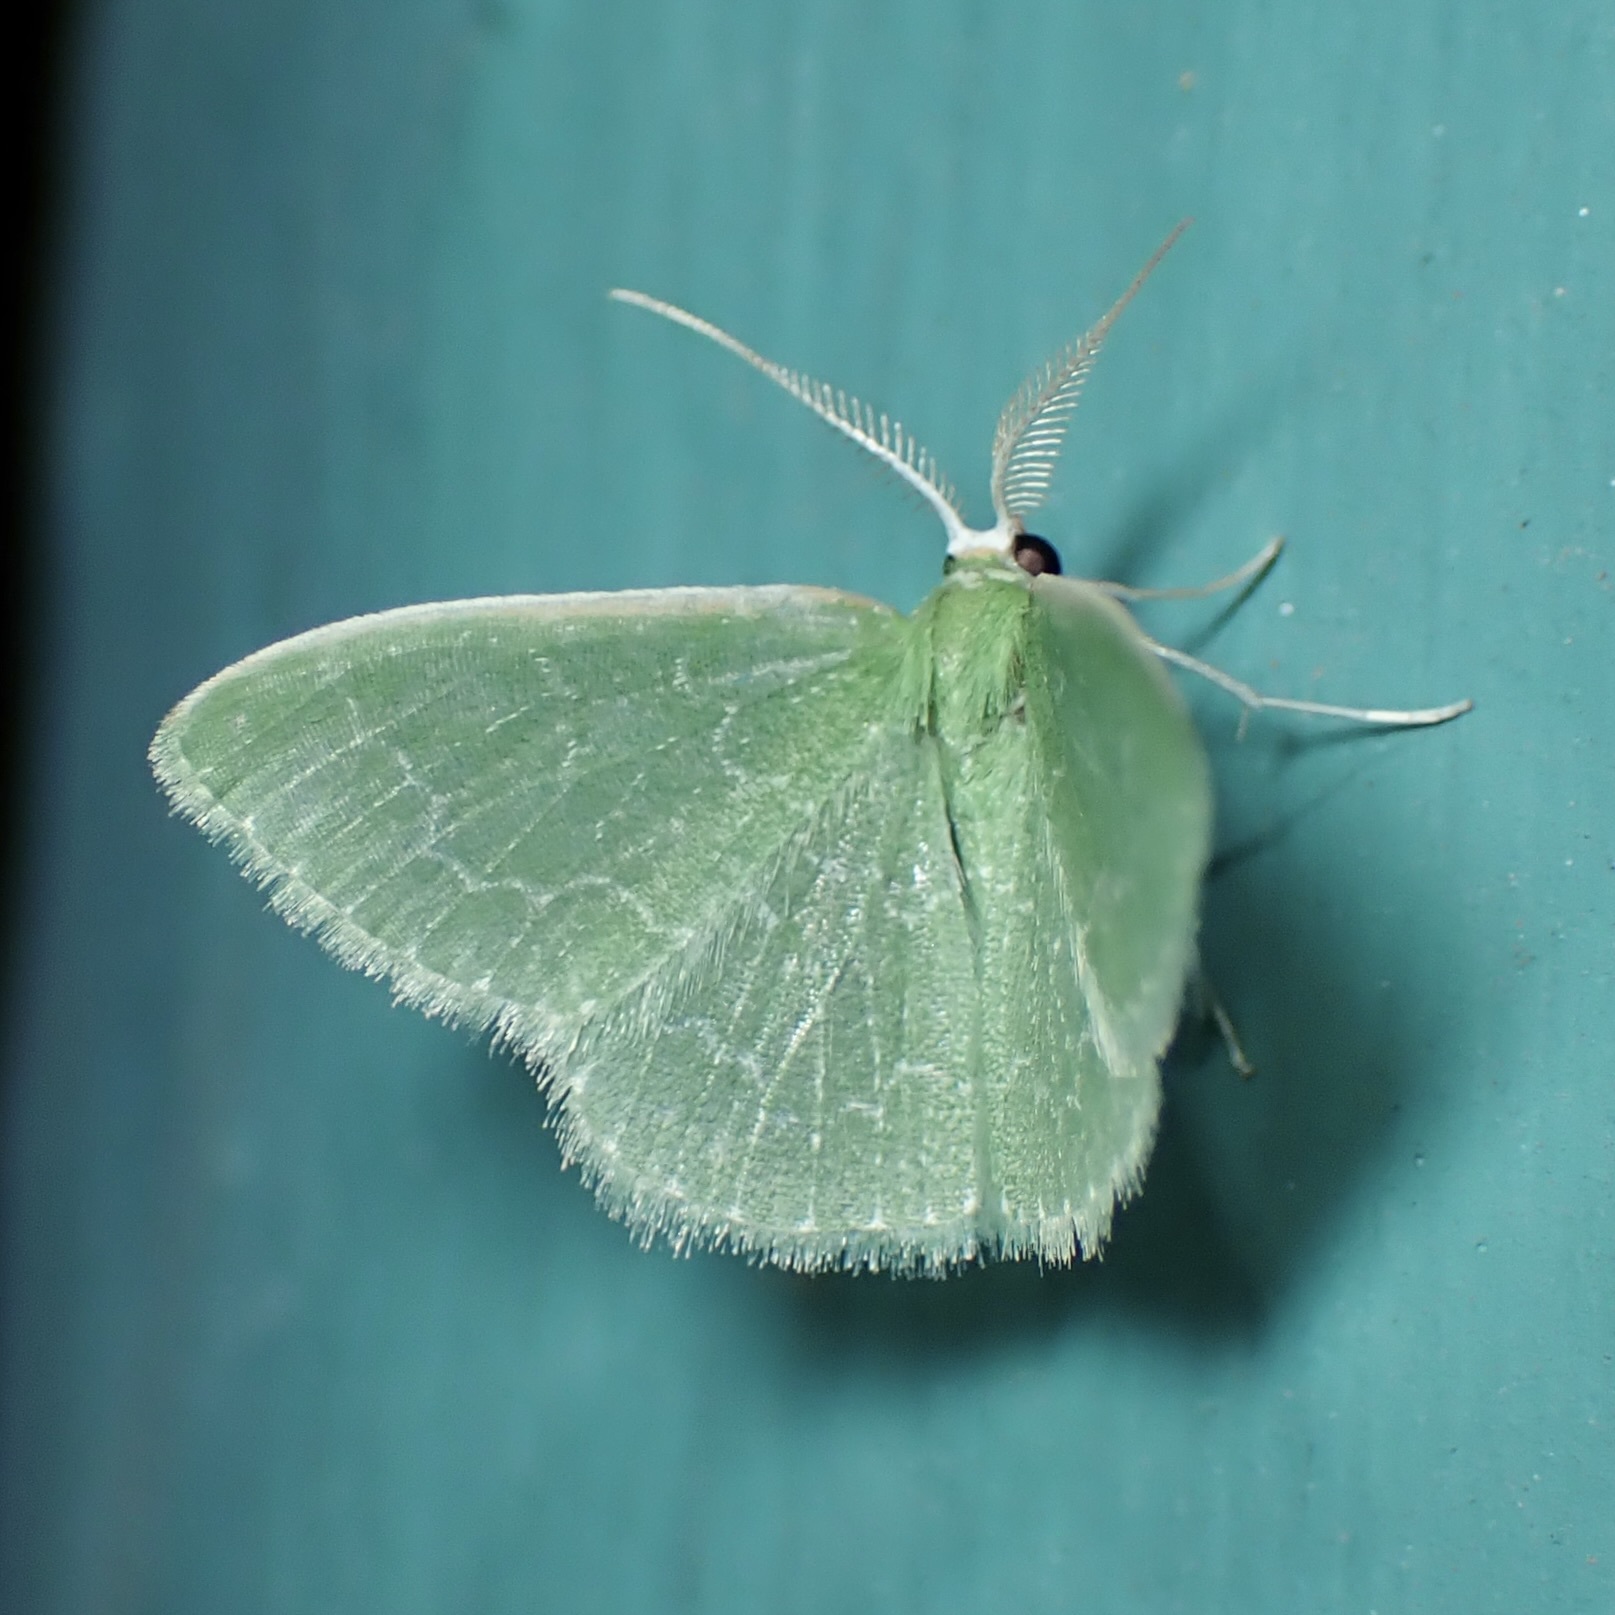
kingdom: Animalia
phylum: Arthropoda
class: Insecta
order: Lepidoptera
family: Geometridae
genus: Synchlora
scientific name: Synchlora frondaria
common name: Southern emerald
